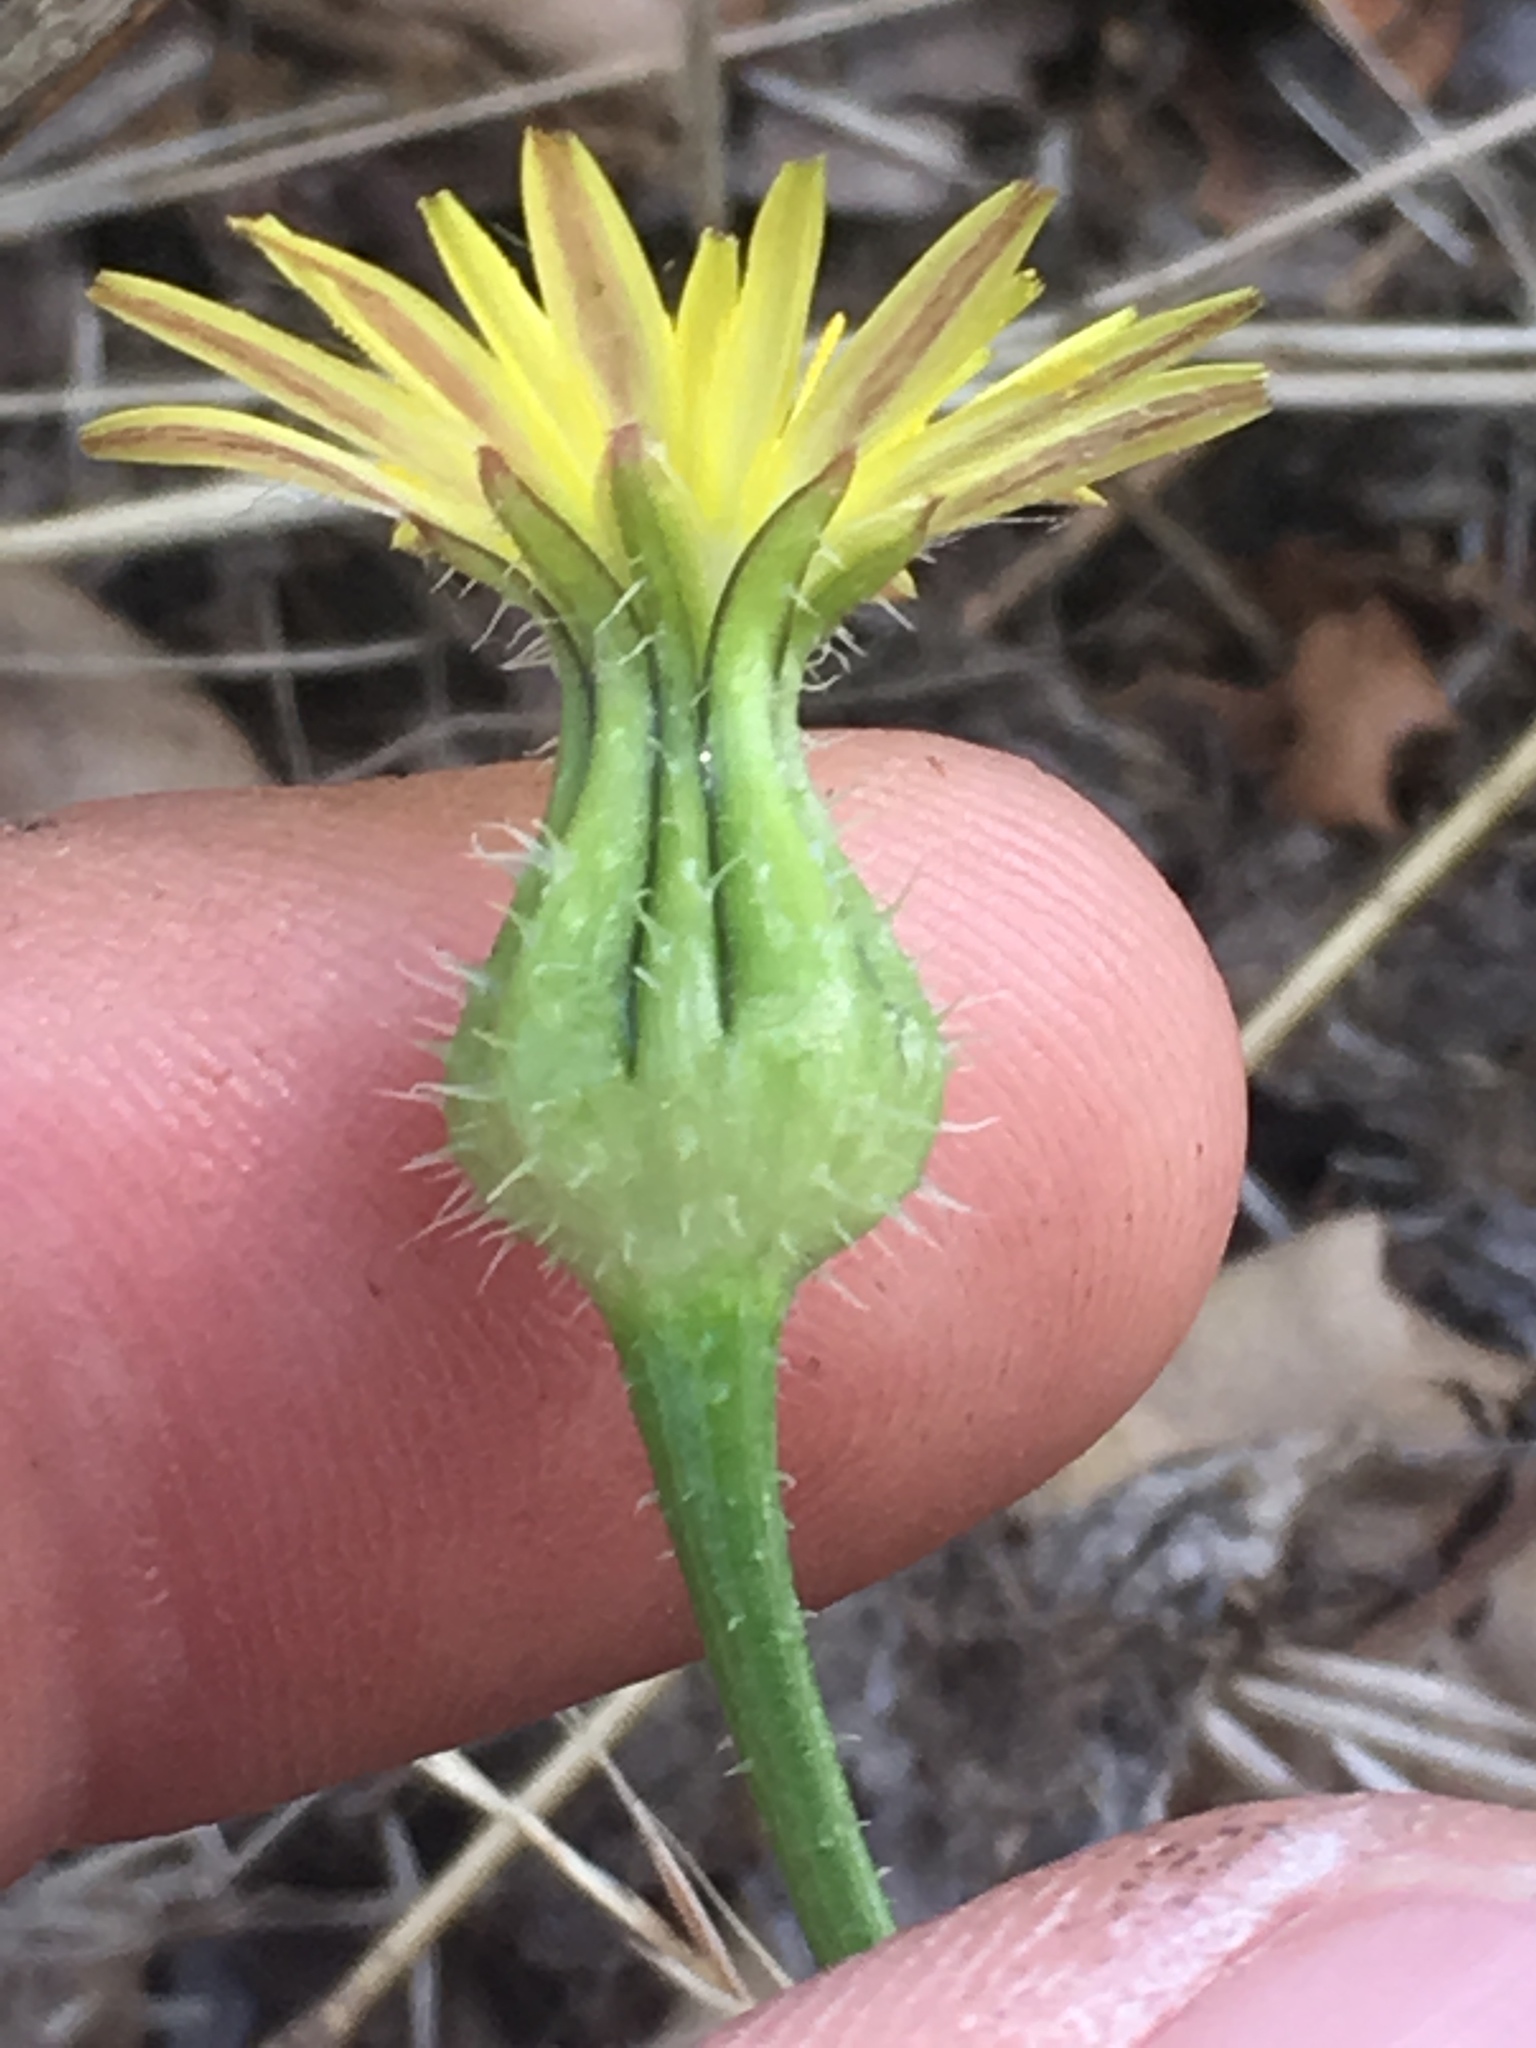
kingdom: Plantae
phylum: Tracheophyta
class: Magnoliopsida
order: Asterales
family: Asteraceae
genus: Urospermum
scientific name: Urospermum picroides
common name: False hawkbit
